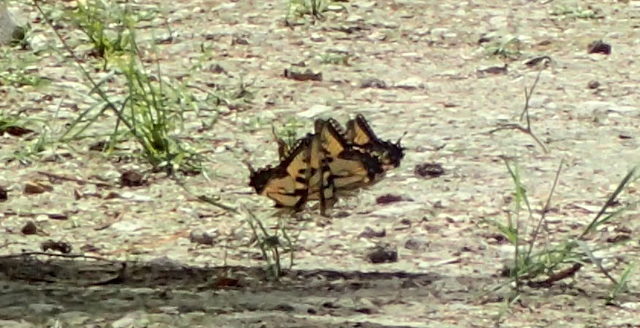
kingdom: Animalia
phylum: Arthropoda
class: Insecta
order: Lepidoptera
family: Papilionidae
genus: Papilio
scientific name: Papilio glaucus
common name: Tiger swallowtail
